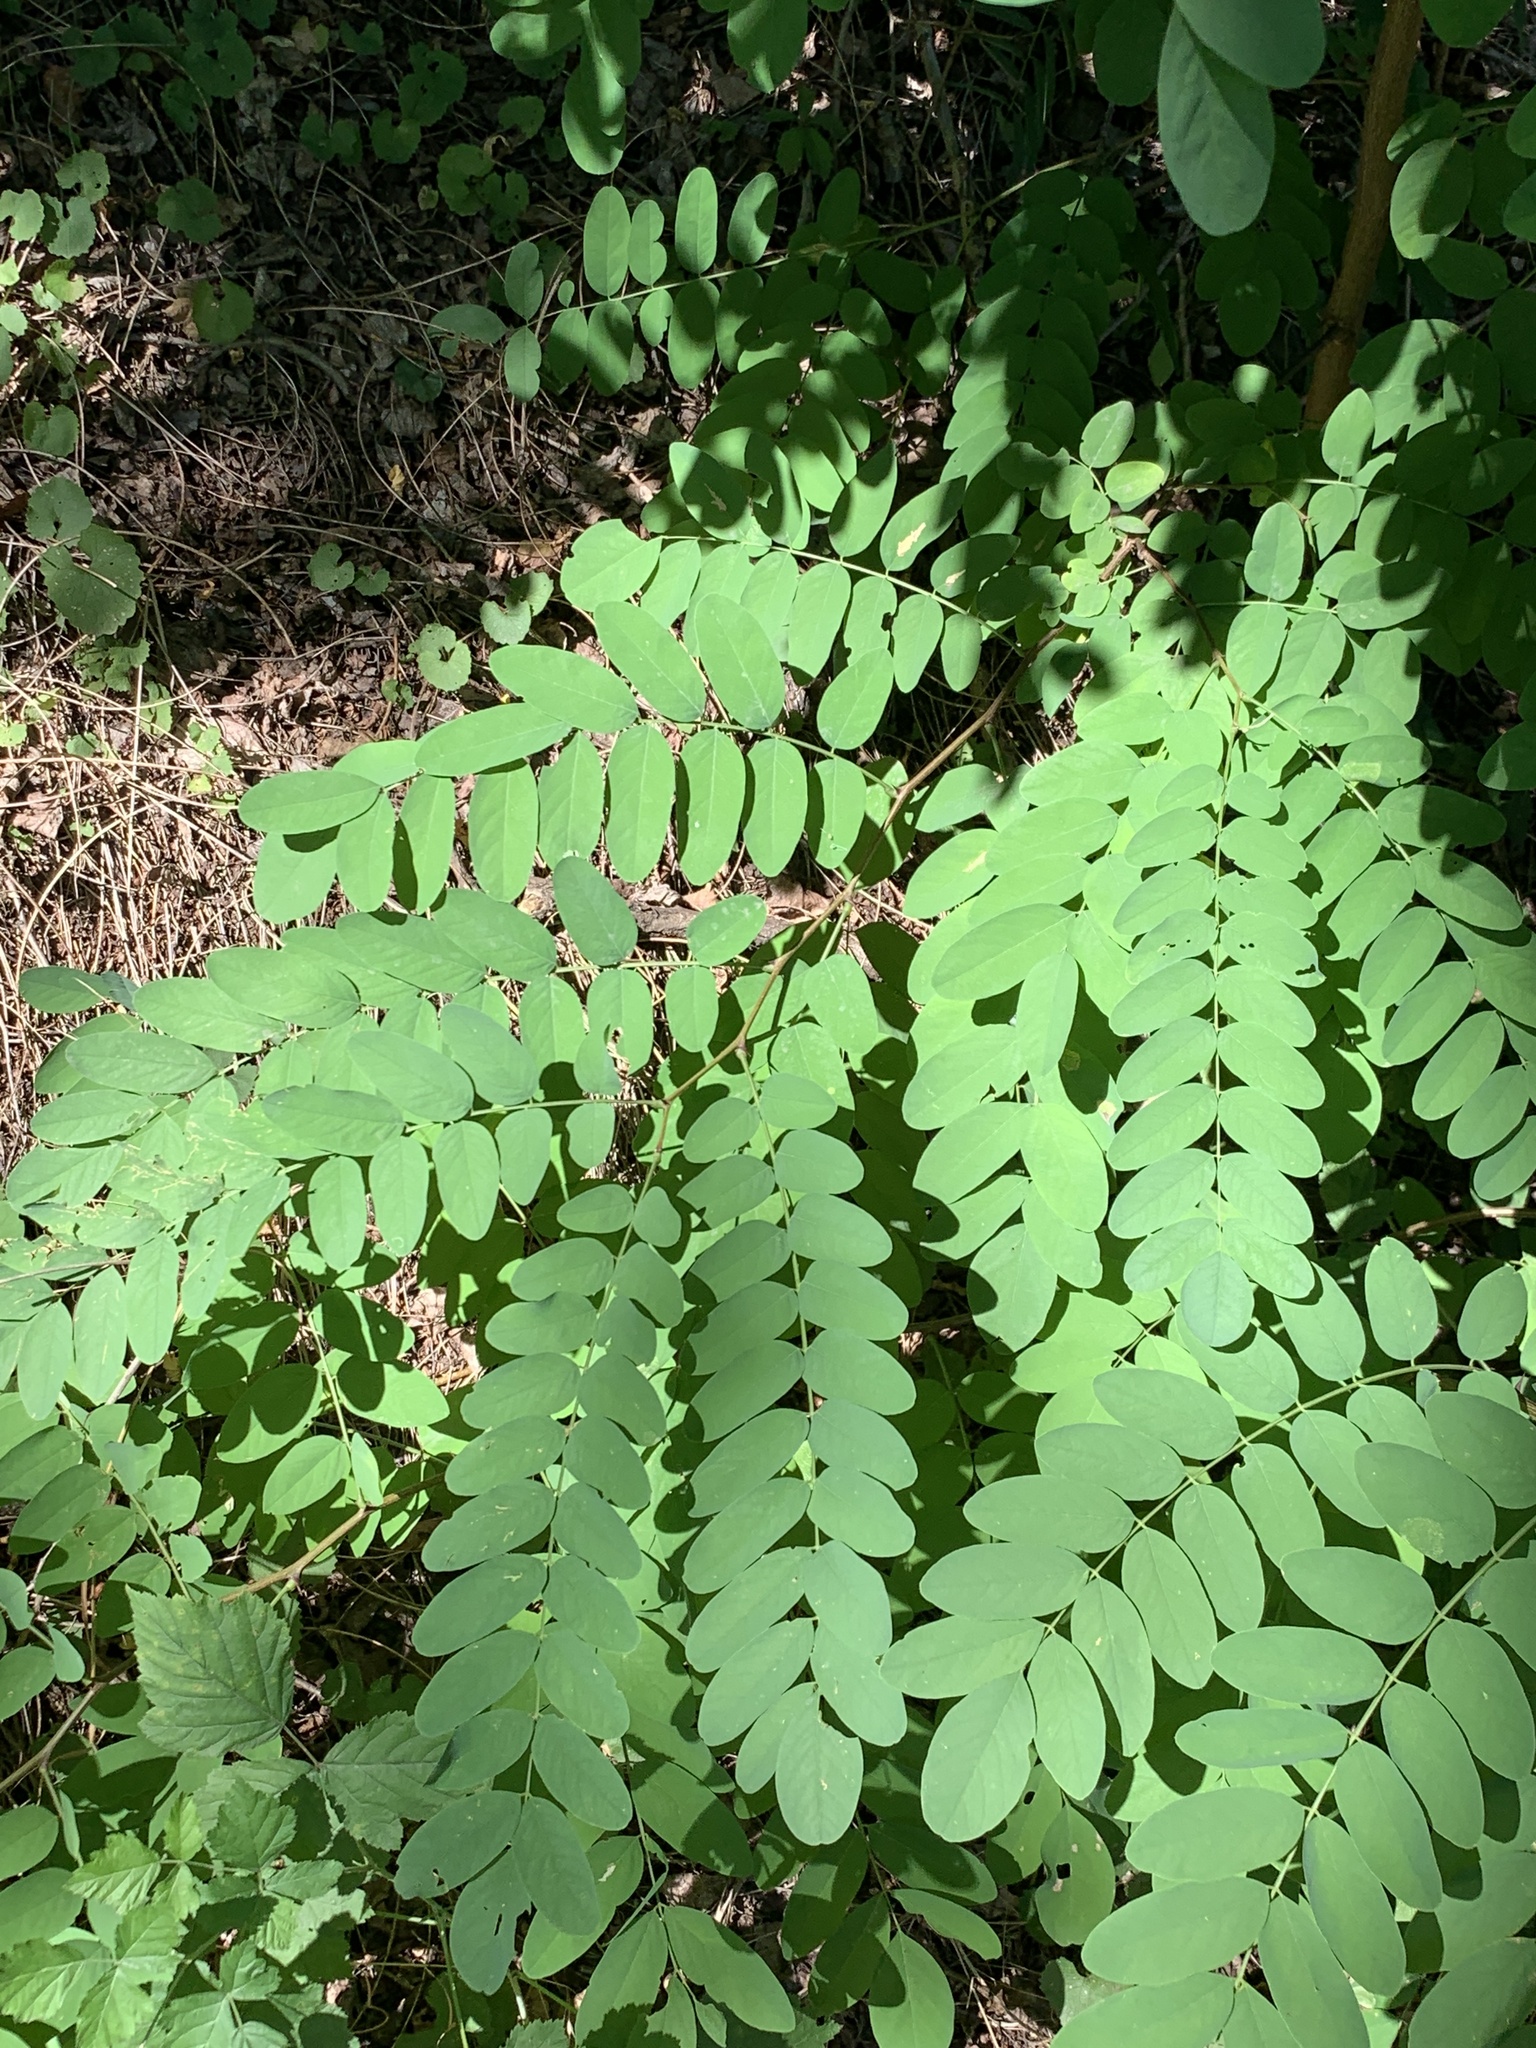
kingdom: Plantae
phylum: Tracheophyta
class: Magnoliopsida
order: Fabales
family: Fabaceae
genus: Robinia
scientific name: Robinia pseudoacacia
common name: Black locust
